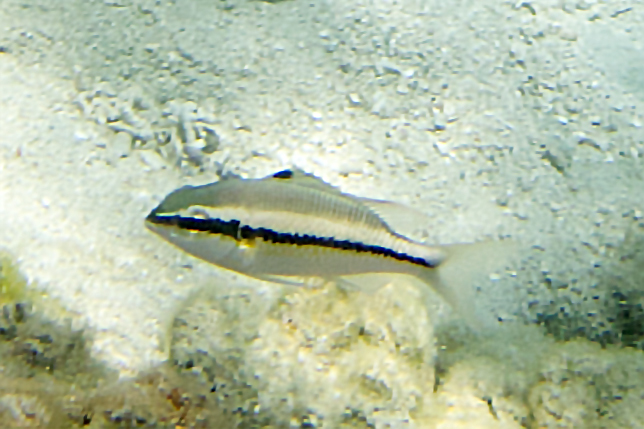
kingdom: Animalia
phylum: Chordata
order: Perciformes
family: Nemipteridae
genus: Scolopsis
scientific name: Scolopsis margaritifera
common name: Pearly monocle bream
